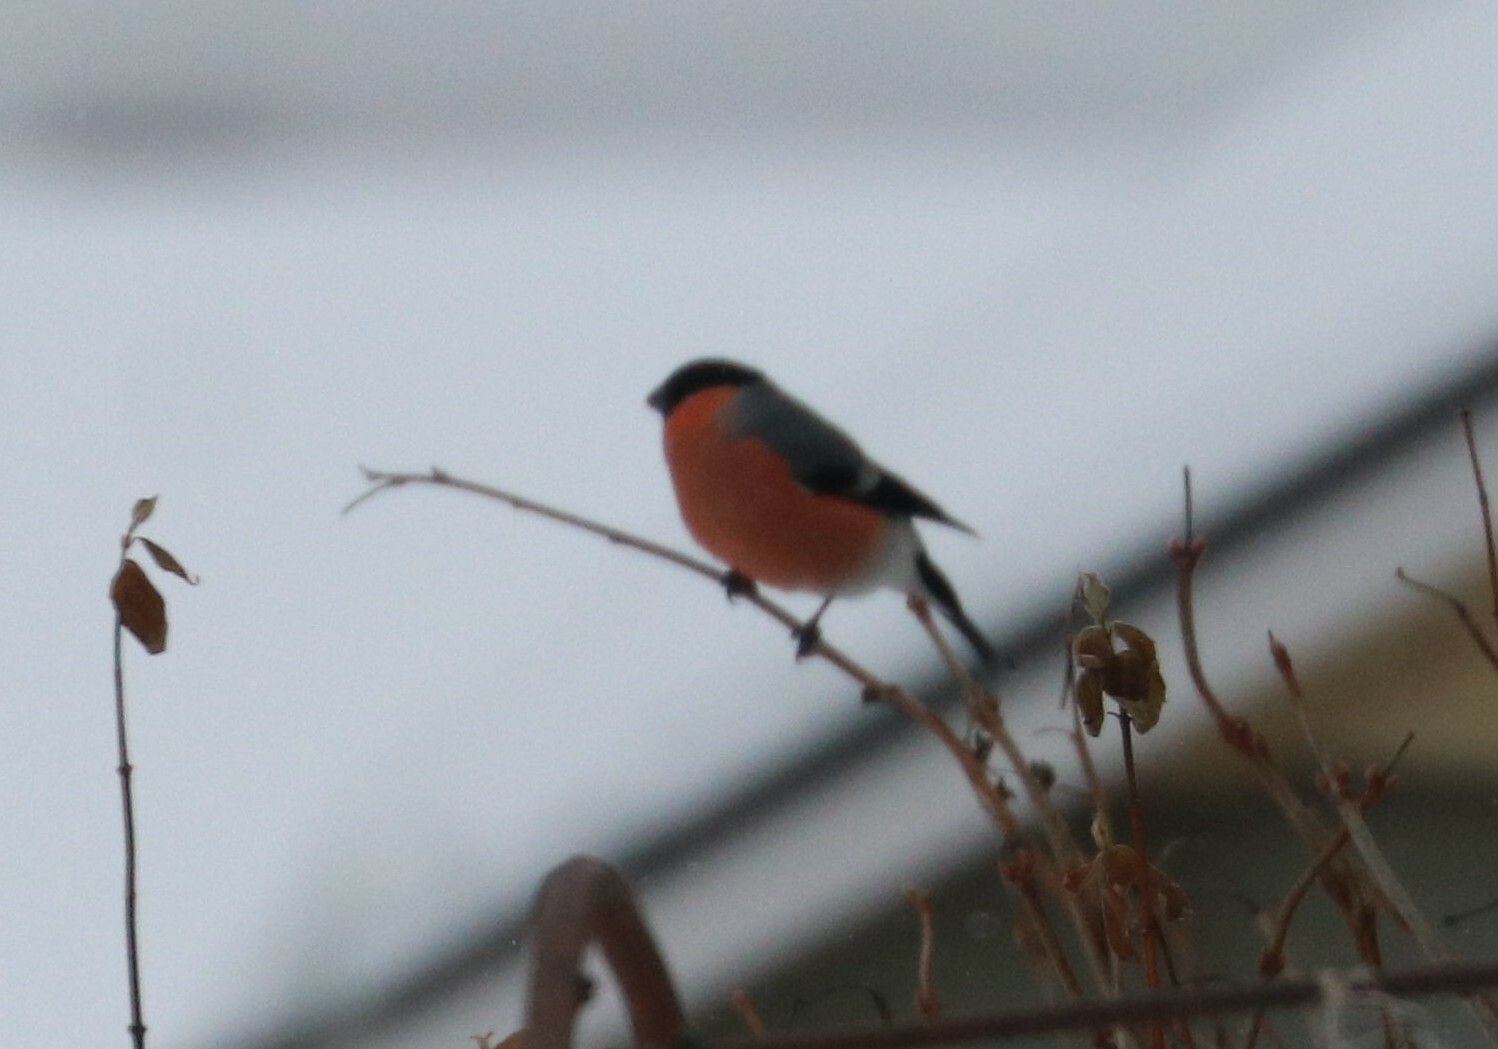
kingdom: Animalia
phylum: Chordata
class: Aves
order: Passeriformes
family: Fringillidae
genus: Pyrrhula
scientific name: Pyrrhula pyrrhula
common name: Eurasian bullfinch
